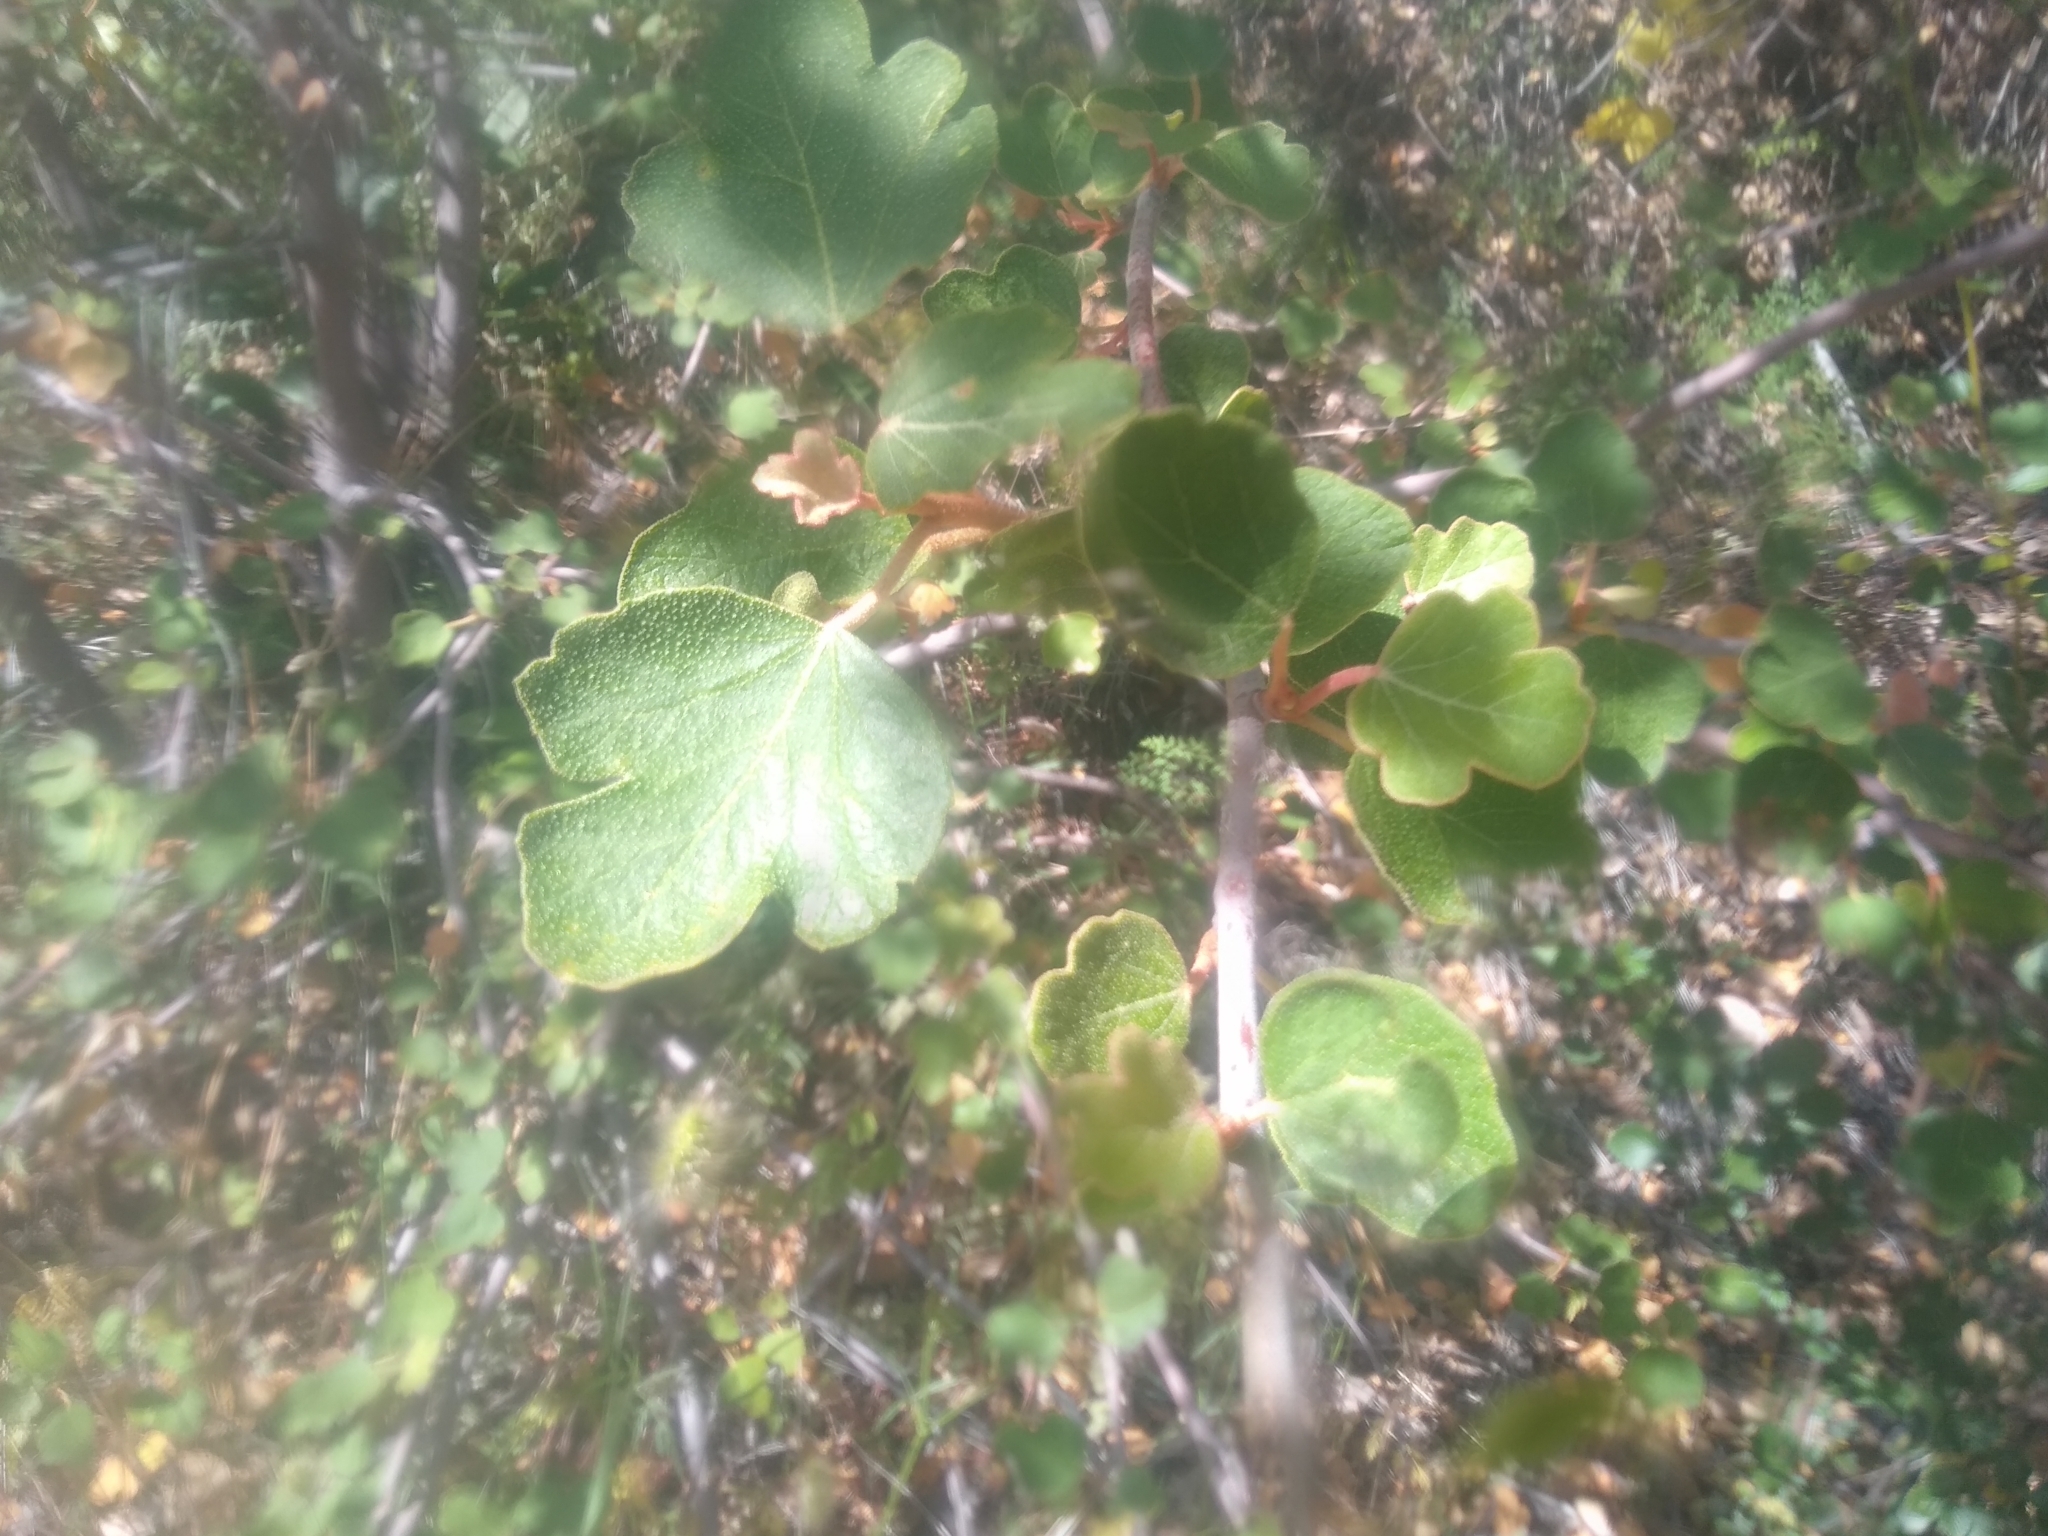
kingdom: Plantae
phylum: Tracheophyta
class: Magnoliopsida
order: Sapindales
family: Anacardiaceae
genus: Rhus
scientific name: Rhus aromatica
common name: Aromatic sumac
